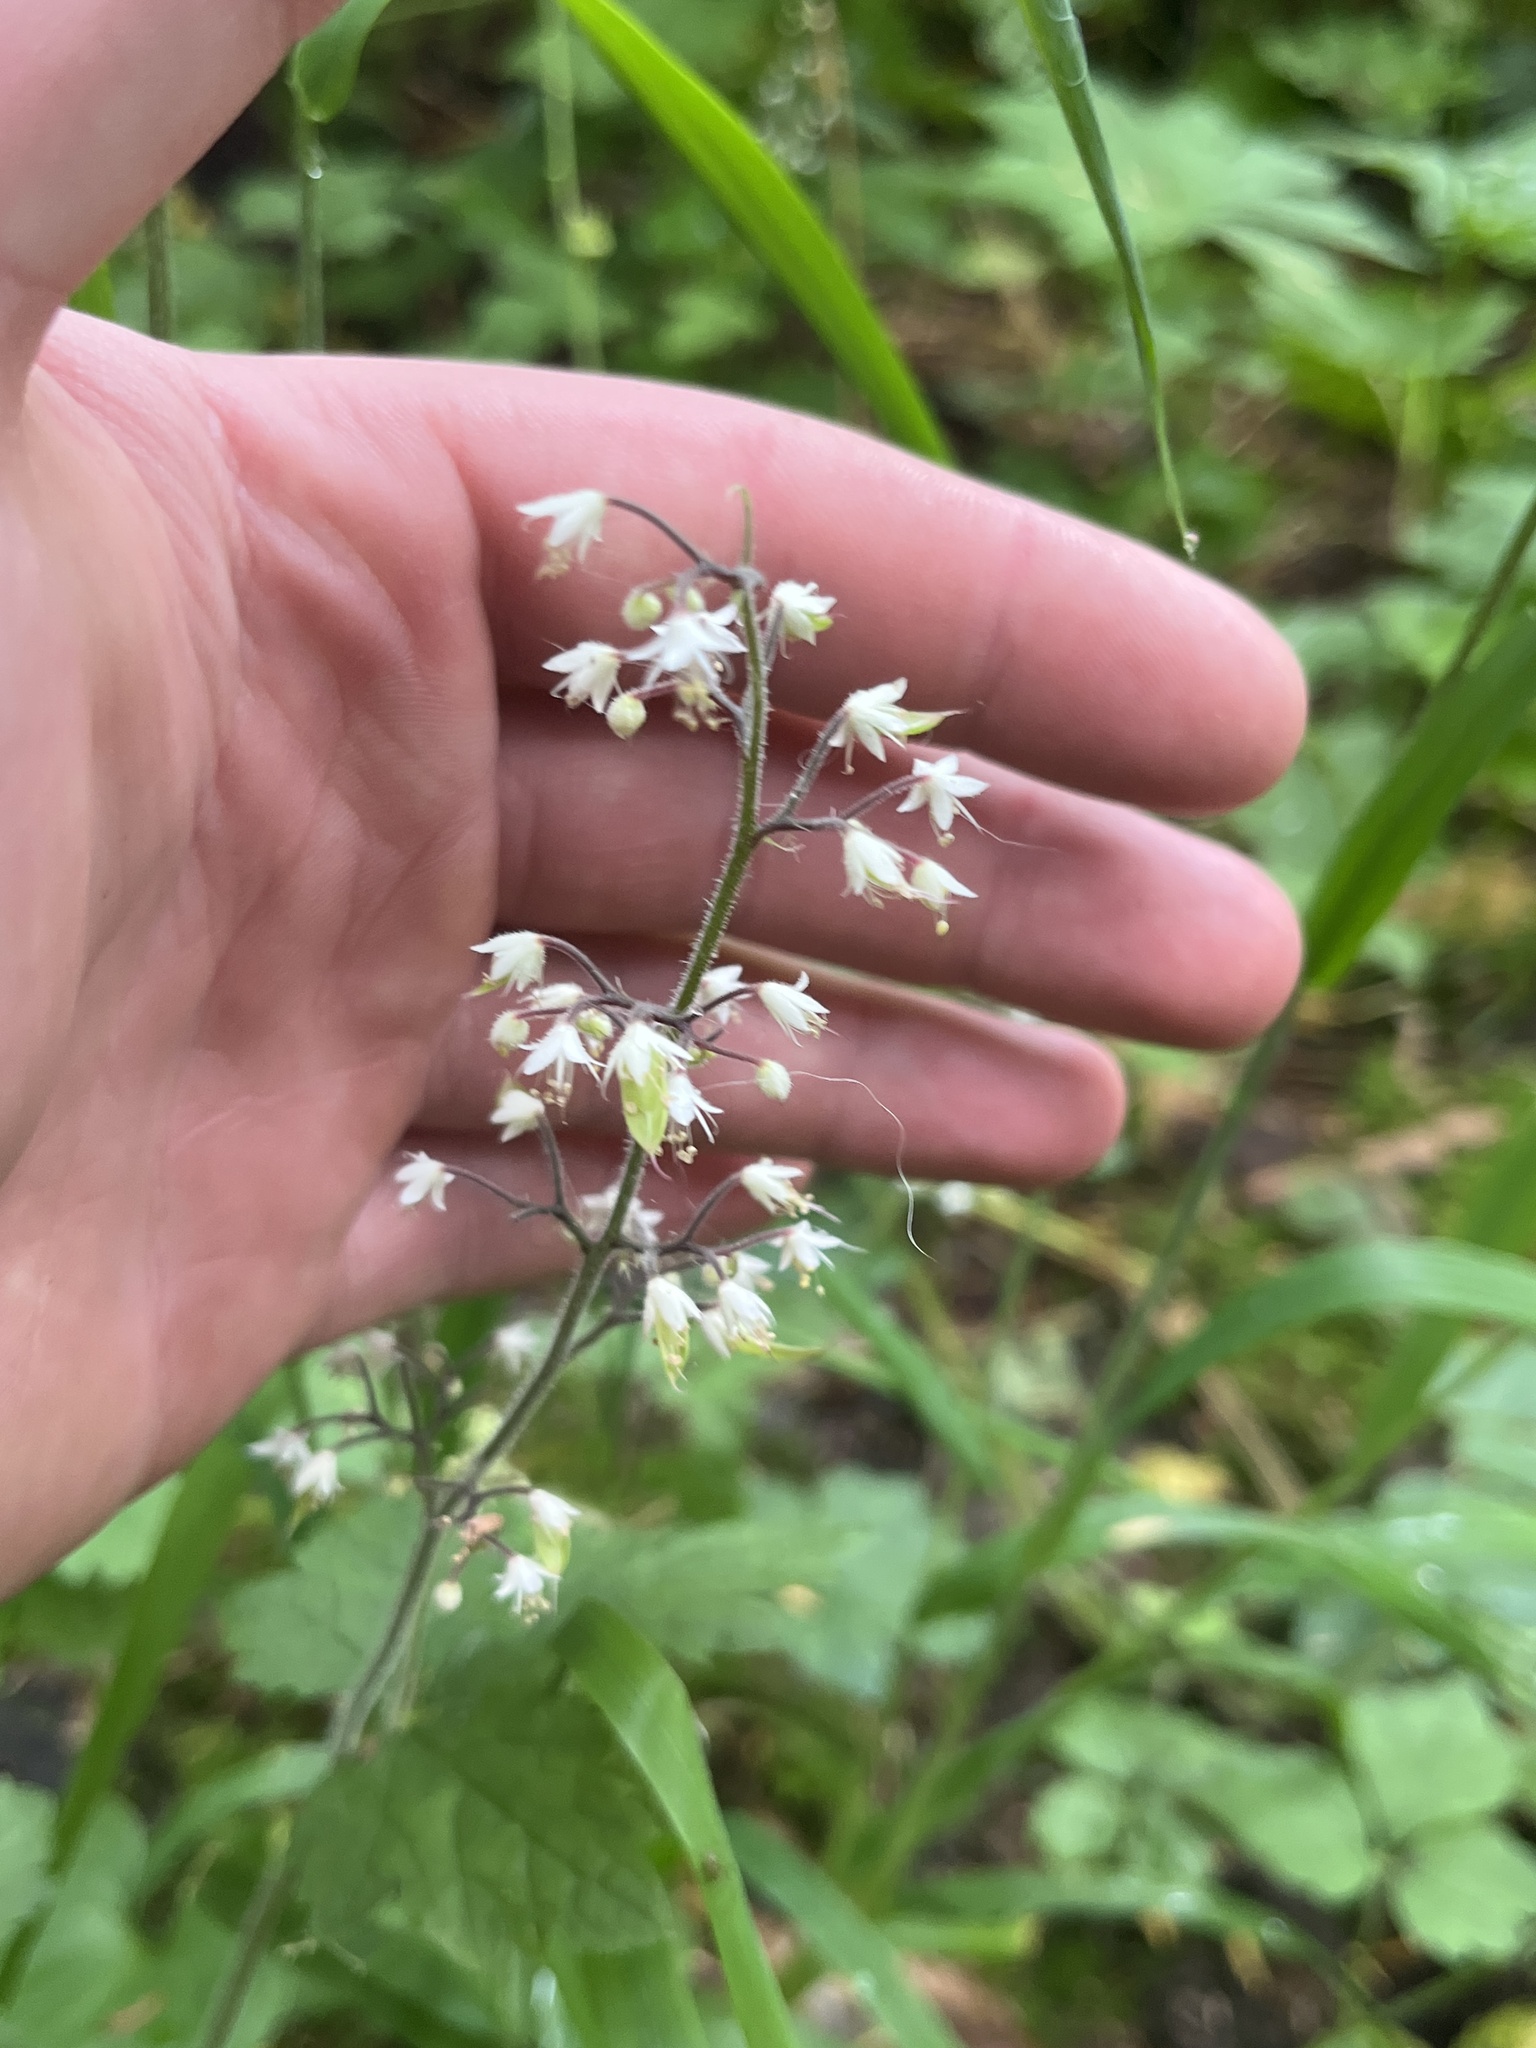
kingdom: Plantae
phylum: Tracheophyta
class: Magnoliopsida
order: Saxifragales
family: Saxifragaceae
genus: Tiarella
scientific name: Tiarella trifoliata
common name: Sugar-scoop
